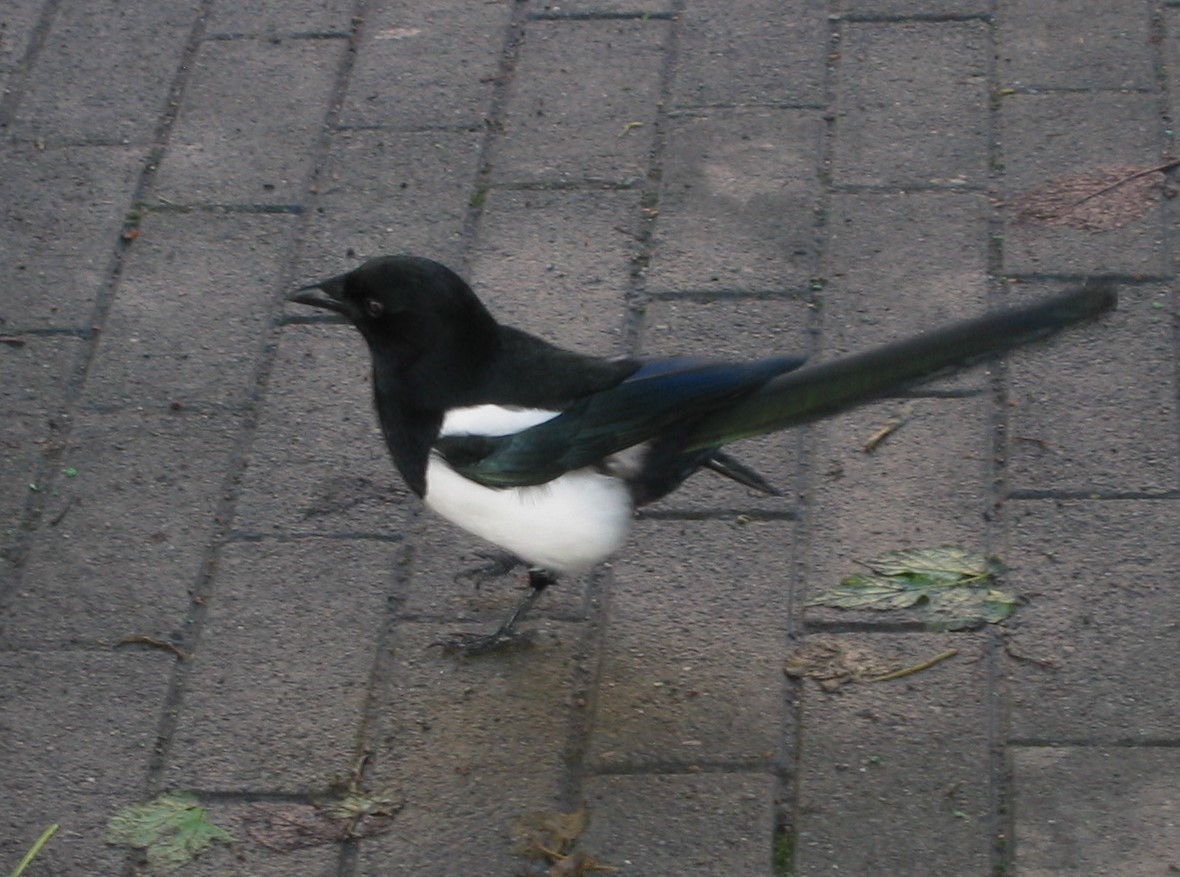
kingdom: Animalia
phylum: Chordata
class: Aves
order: Passeriformes
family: Corvidae
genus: Pica
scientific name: Pica pica
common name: Eurasian magpie
